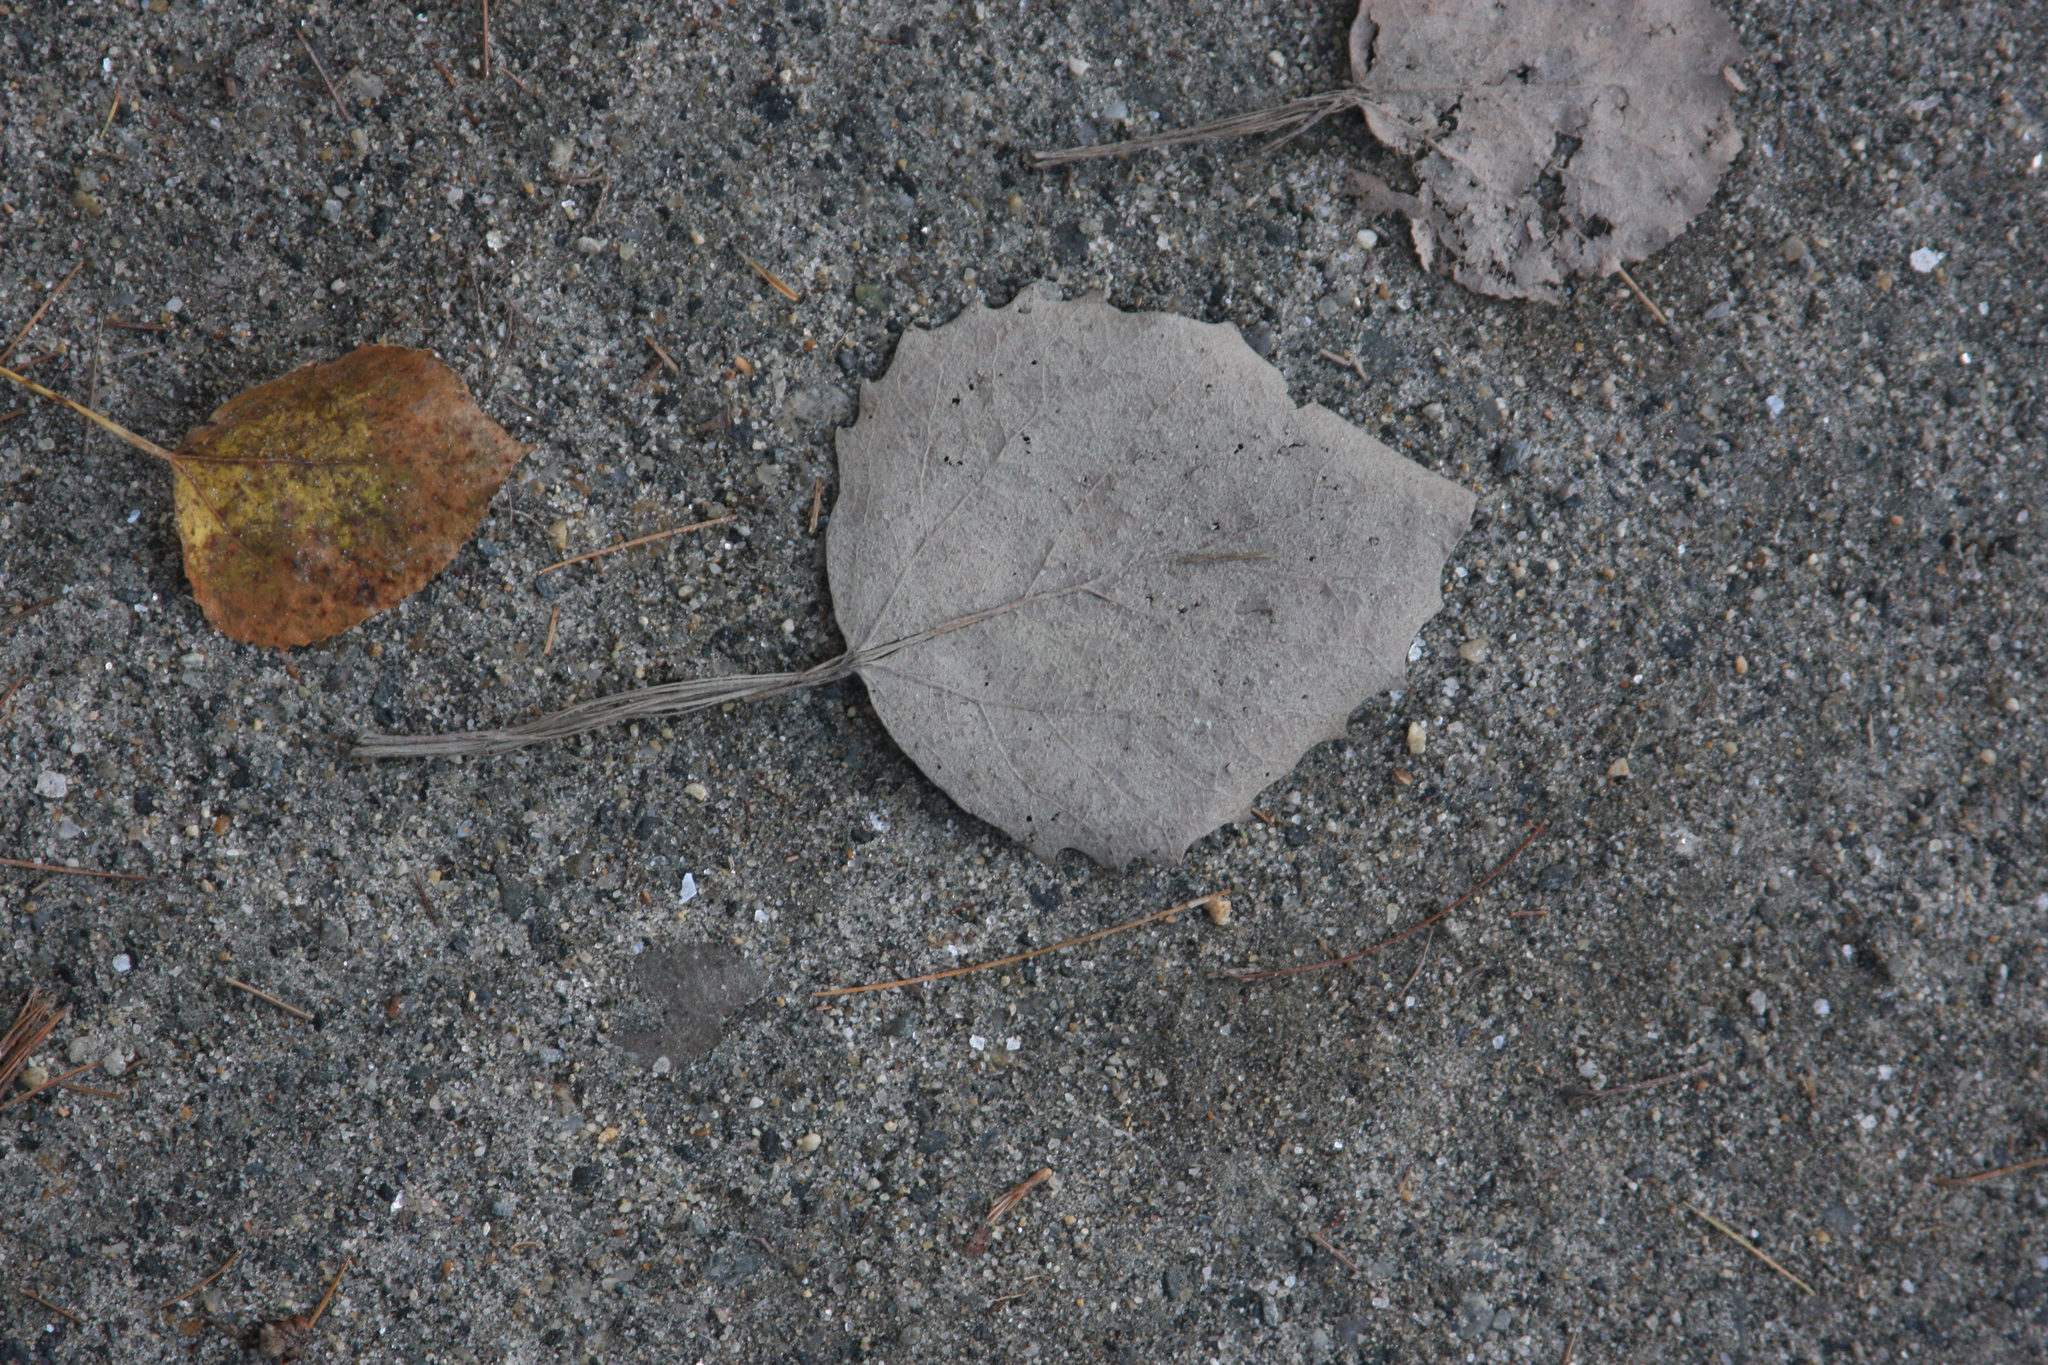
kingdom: Plantae
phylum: Tracheophyta
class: Magnoliopsida
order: Malpighiales
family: Salicaceae
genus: Populus
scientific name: Populus grandidentata
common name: Bigtooth aspen
